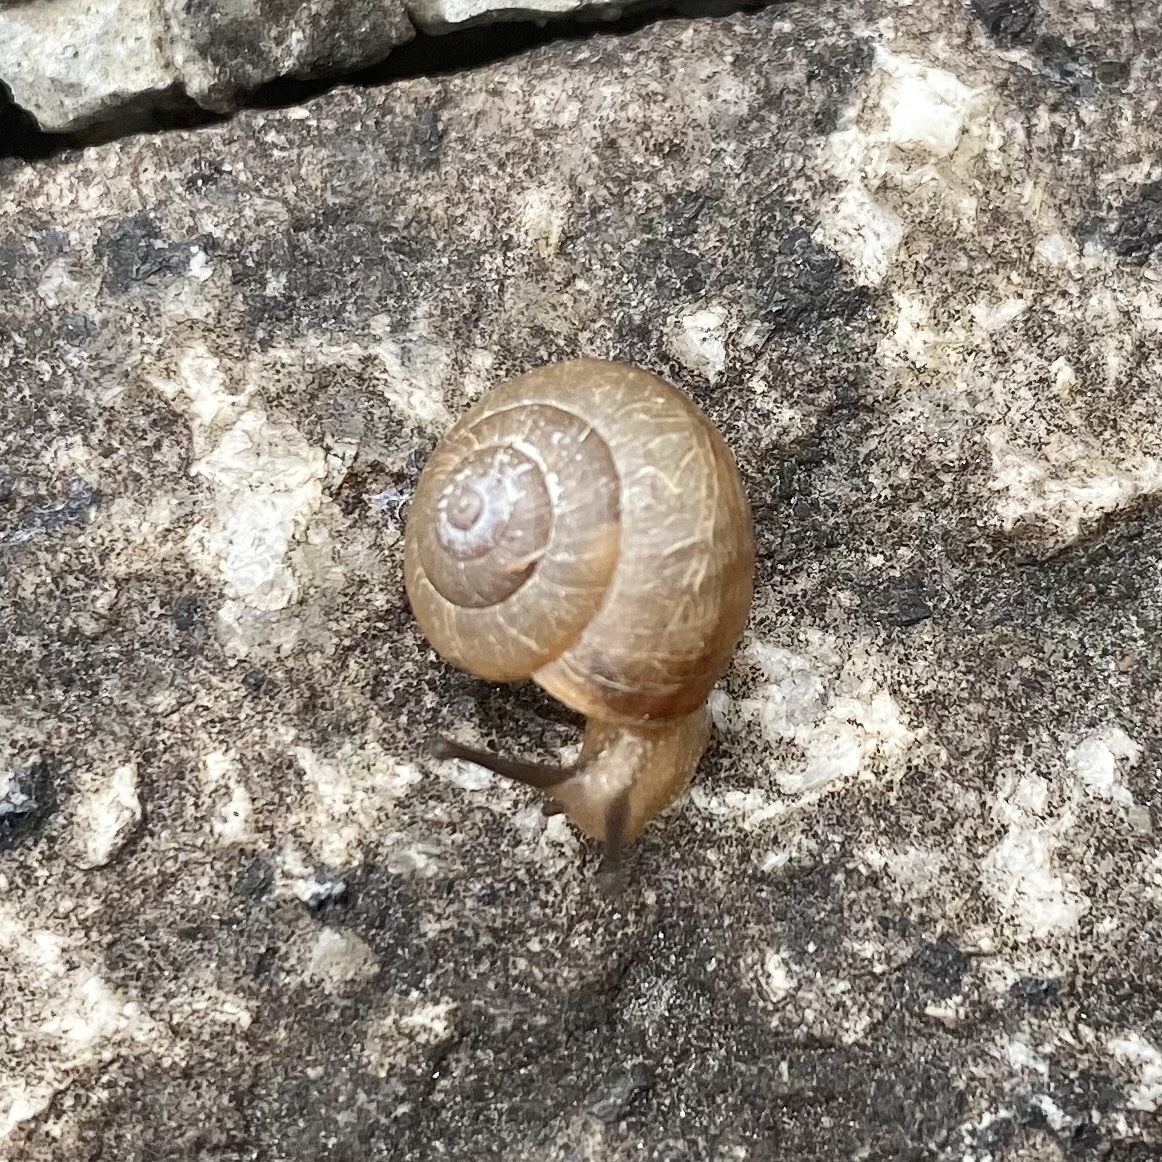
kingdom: Animalia
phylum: Mollusca
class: Gastropoda
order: Stylommatophora
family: Camaenidae
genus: Bradybaena
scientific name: Bradybaena similaris
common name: Asian trampsnail
